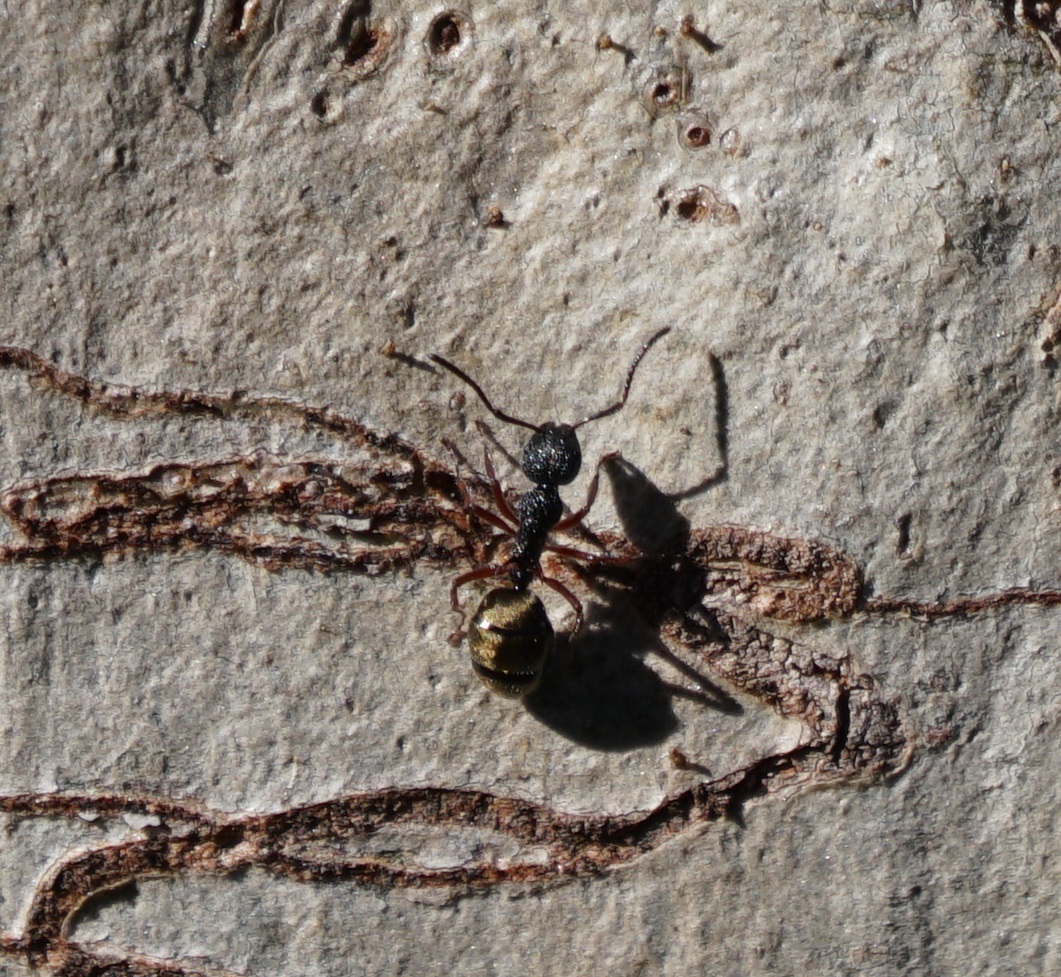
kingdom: Animalia
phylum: Arthropoda
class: Insecta
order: Hymenoptera
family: Formicidae
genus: Dolichoderus
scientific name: Dolichoderus scabridus
